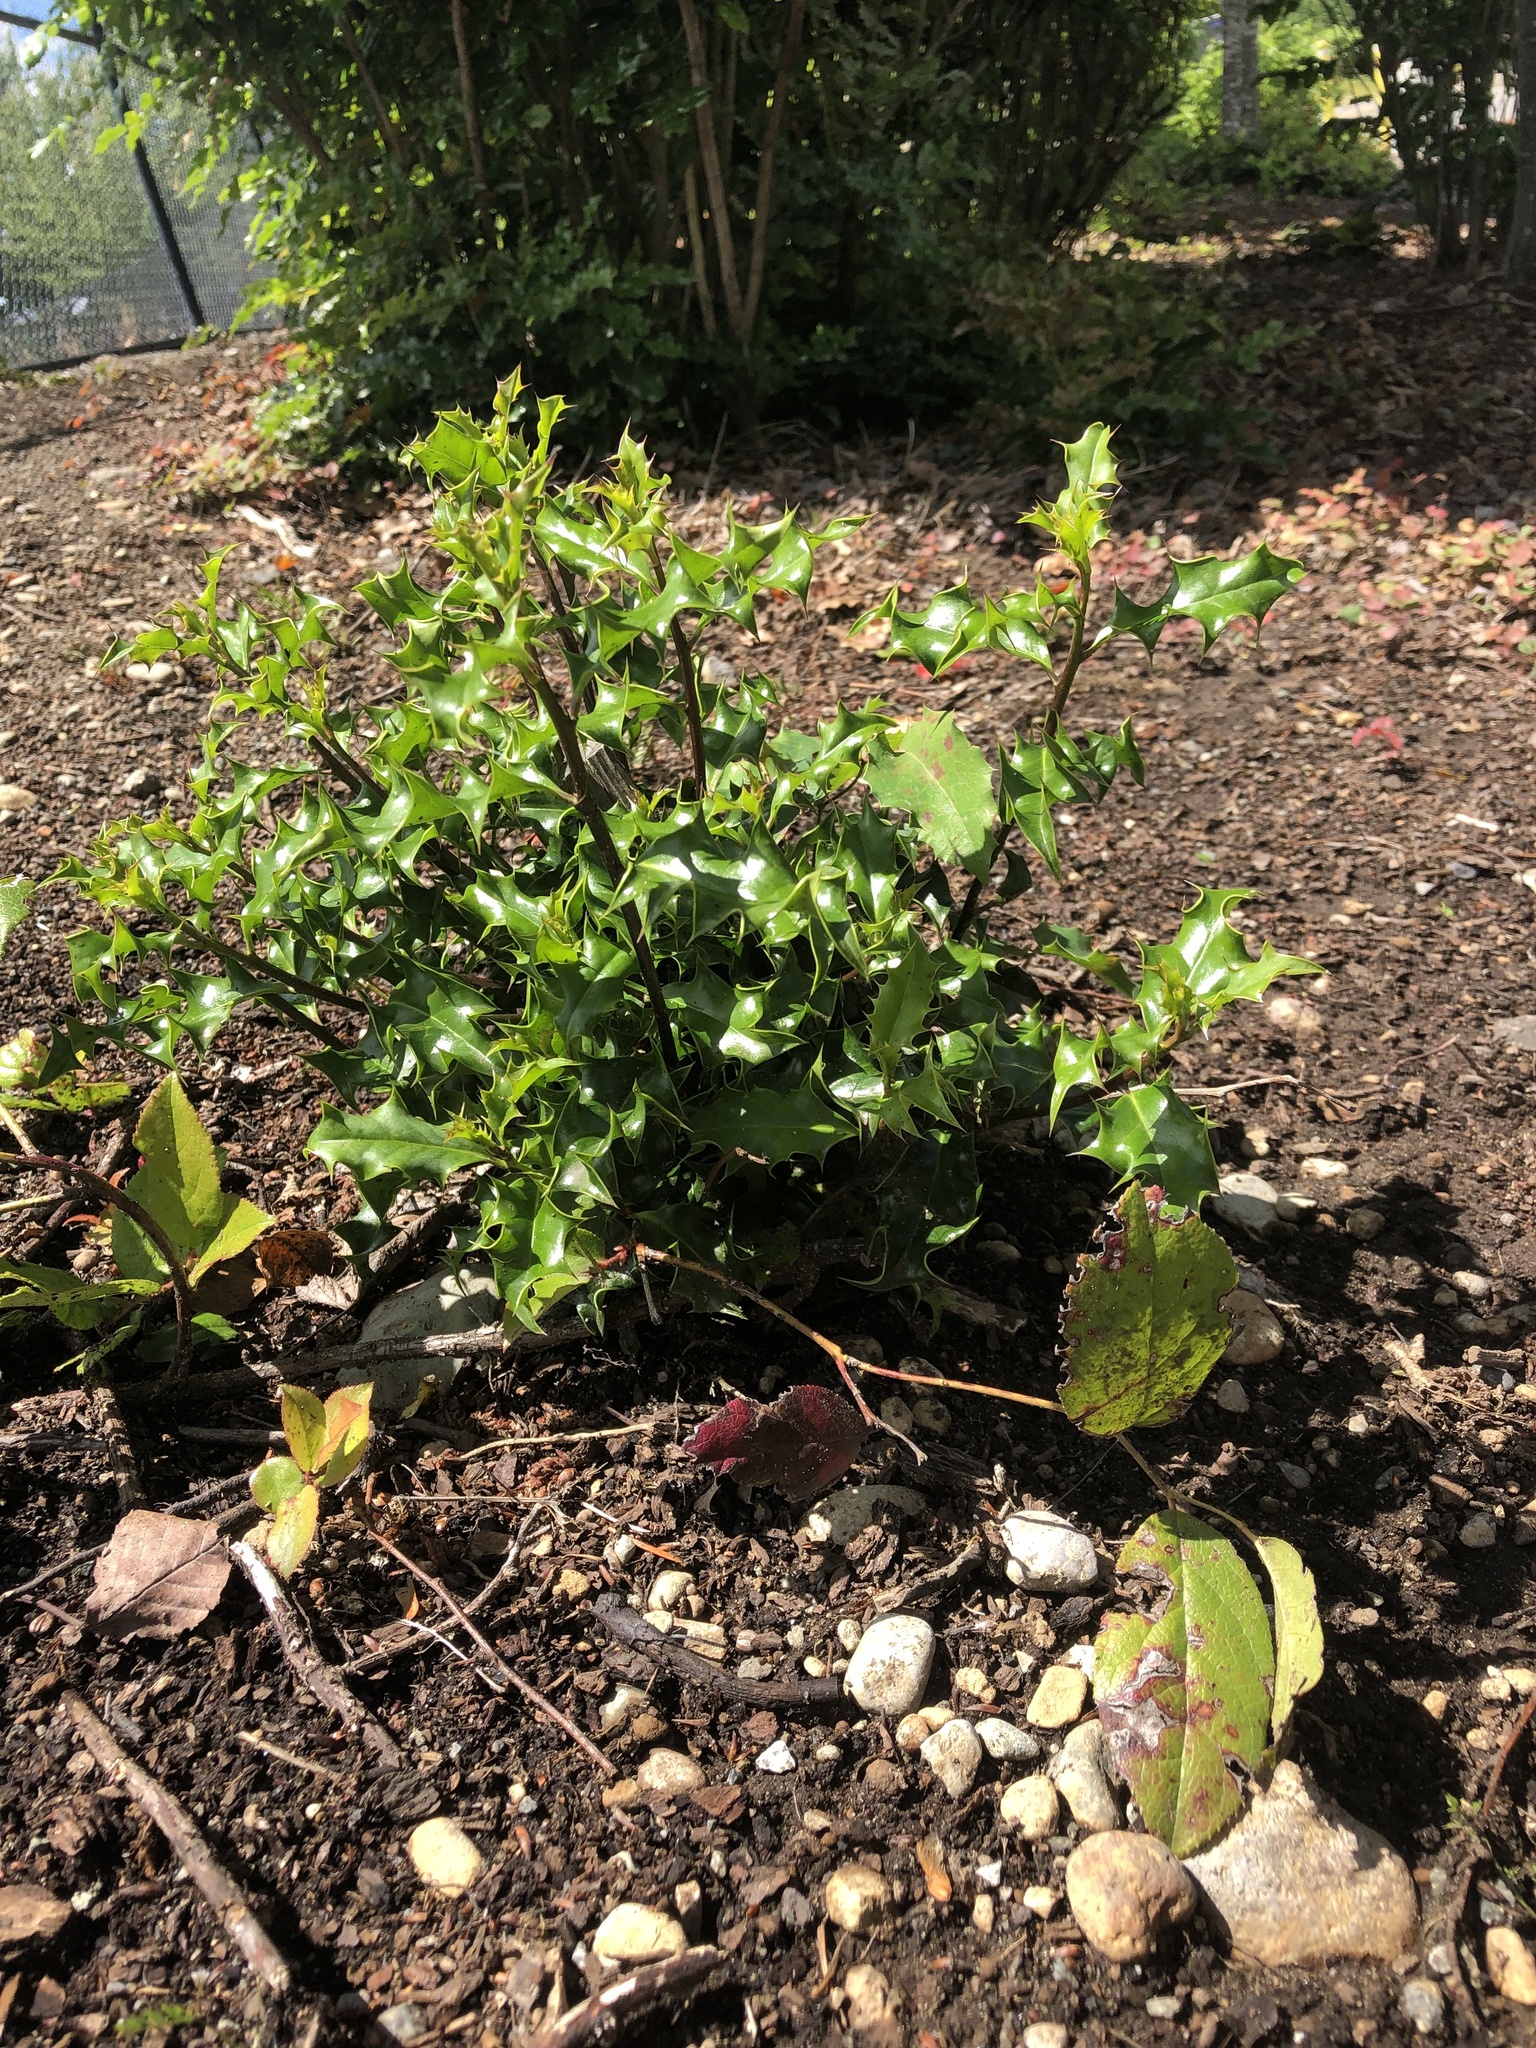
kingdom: Plantae
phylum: Tracheophyta
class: Magnoliopsida
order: Aquifoliales
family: Aquifoliaceae
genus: Ilex
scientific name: Ilex aquifolium
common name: English holly
